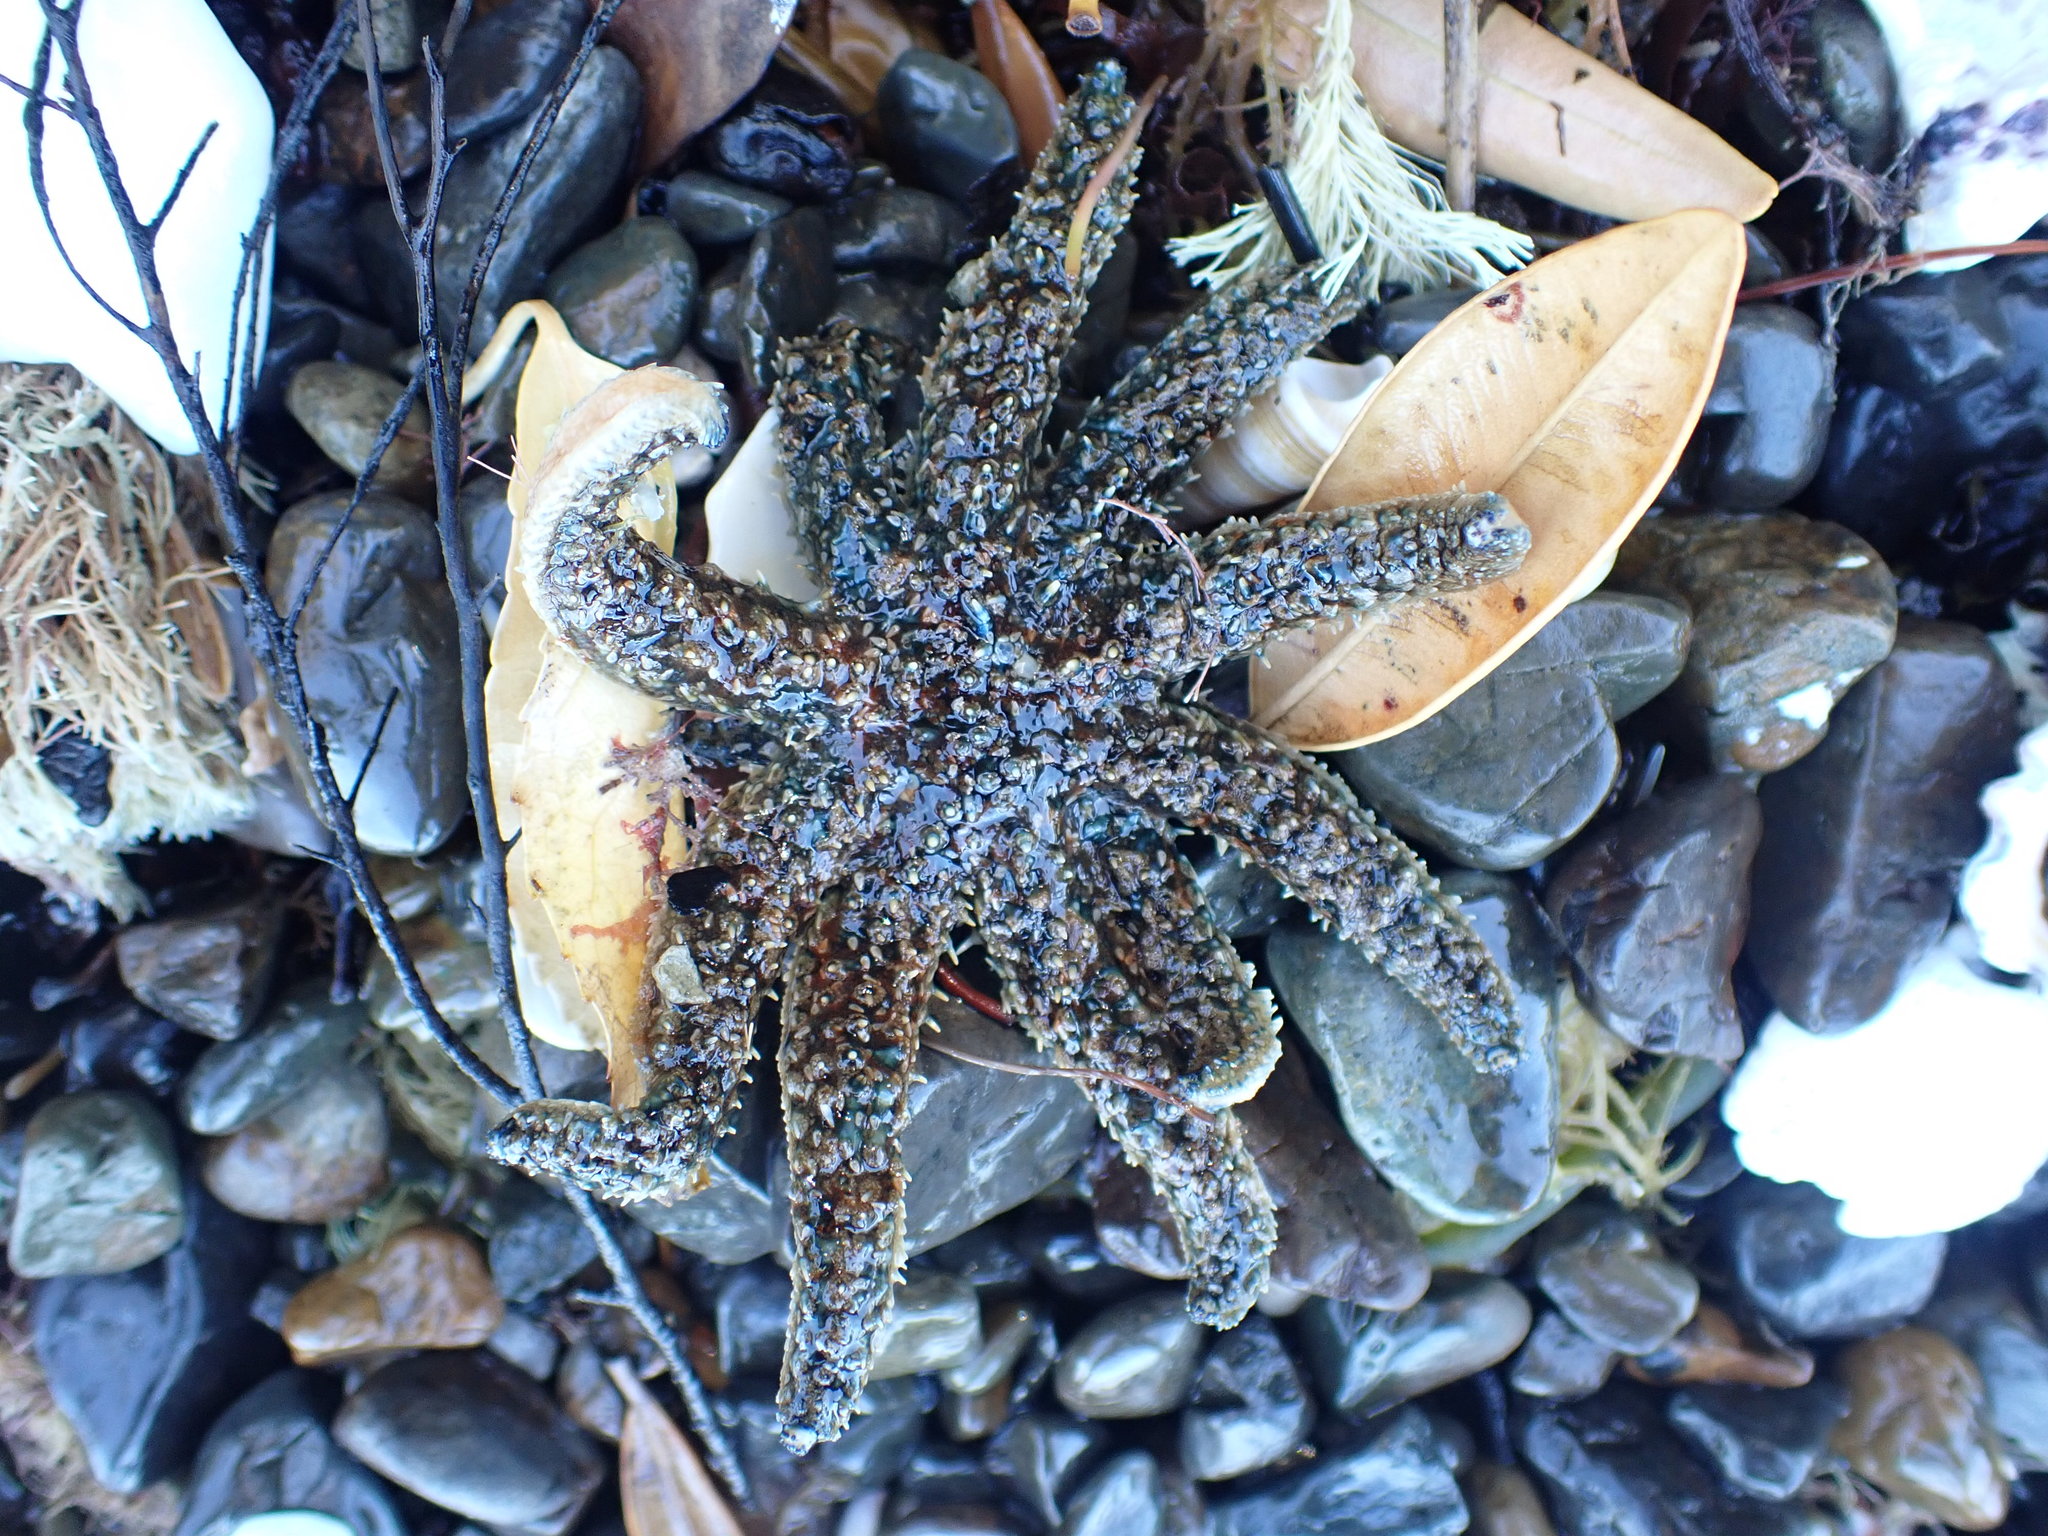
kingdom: Animalia
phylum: Echinodermata
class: Asteroidea
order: Forcipulatida
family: Asteriidae
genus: Coscinasterias
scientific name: Coscinasterias muricata
